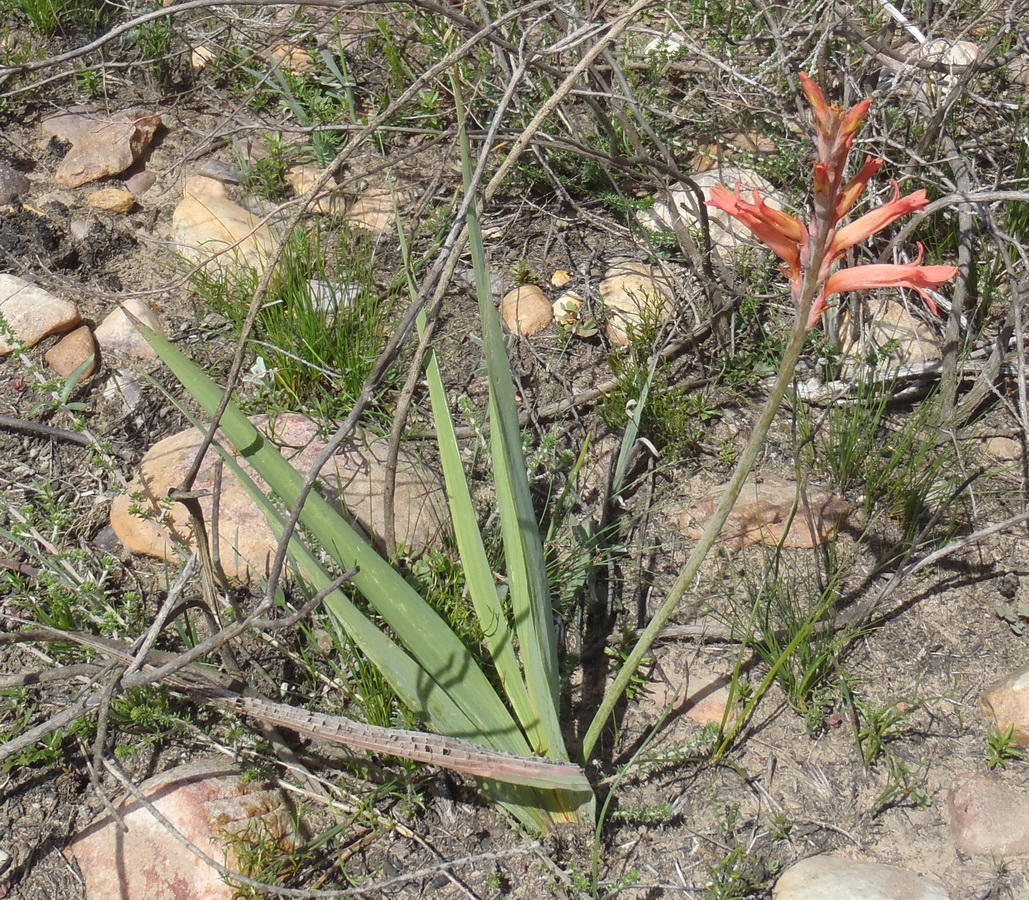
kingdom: Plantae
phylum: Tracheophyta
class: Liliopsida
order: Asparagales
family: Iridaceae
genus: Tritoniopsis
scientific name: Tritoniopsis antholyza
